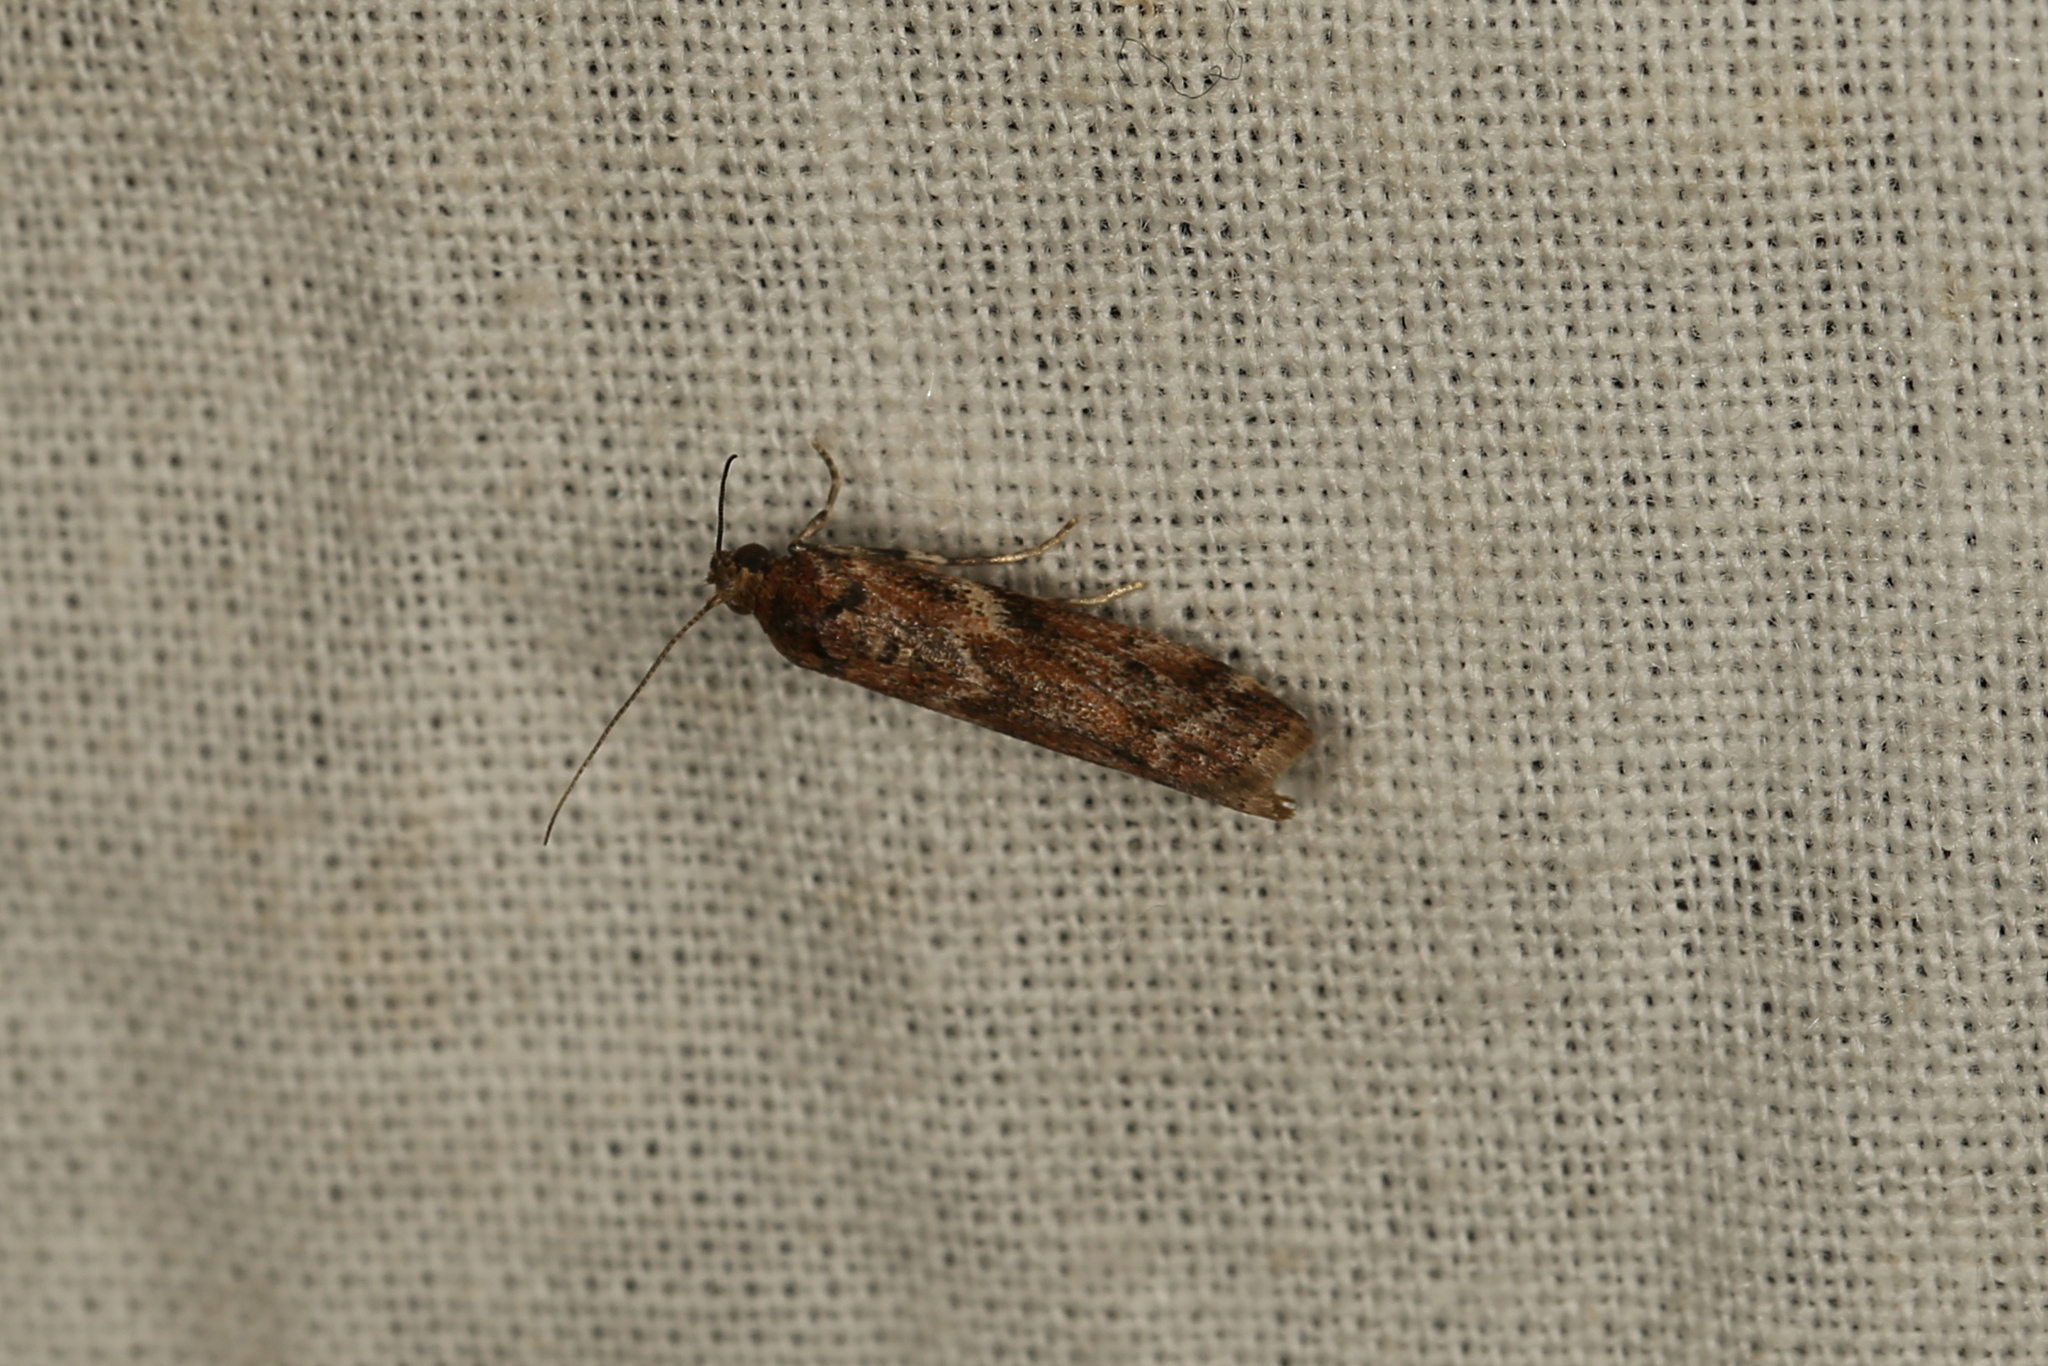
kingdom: Animalia
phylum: Arthropoda
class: Insecta
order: Lepidoptera
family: Pyralidae
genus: Ephestiopsis
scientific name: Ephestiopsis oenobarella
